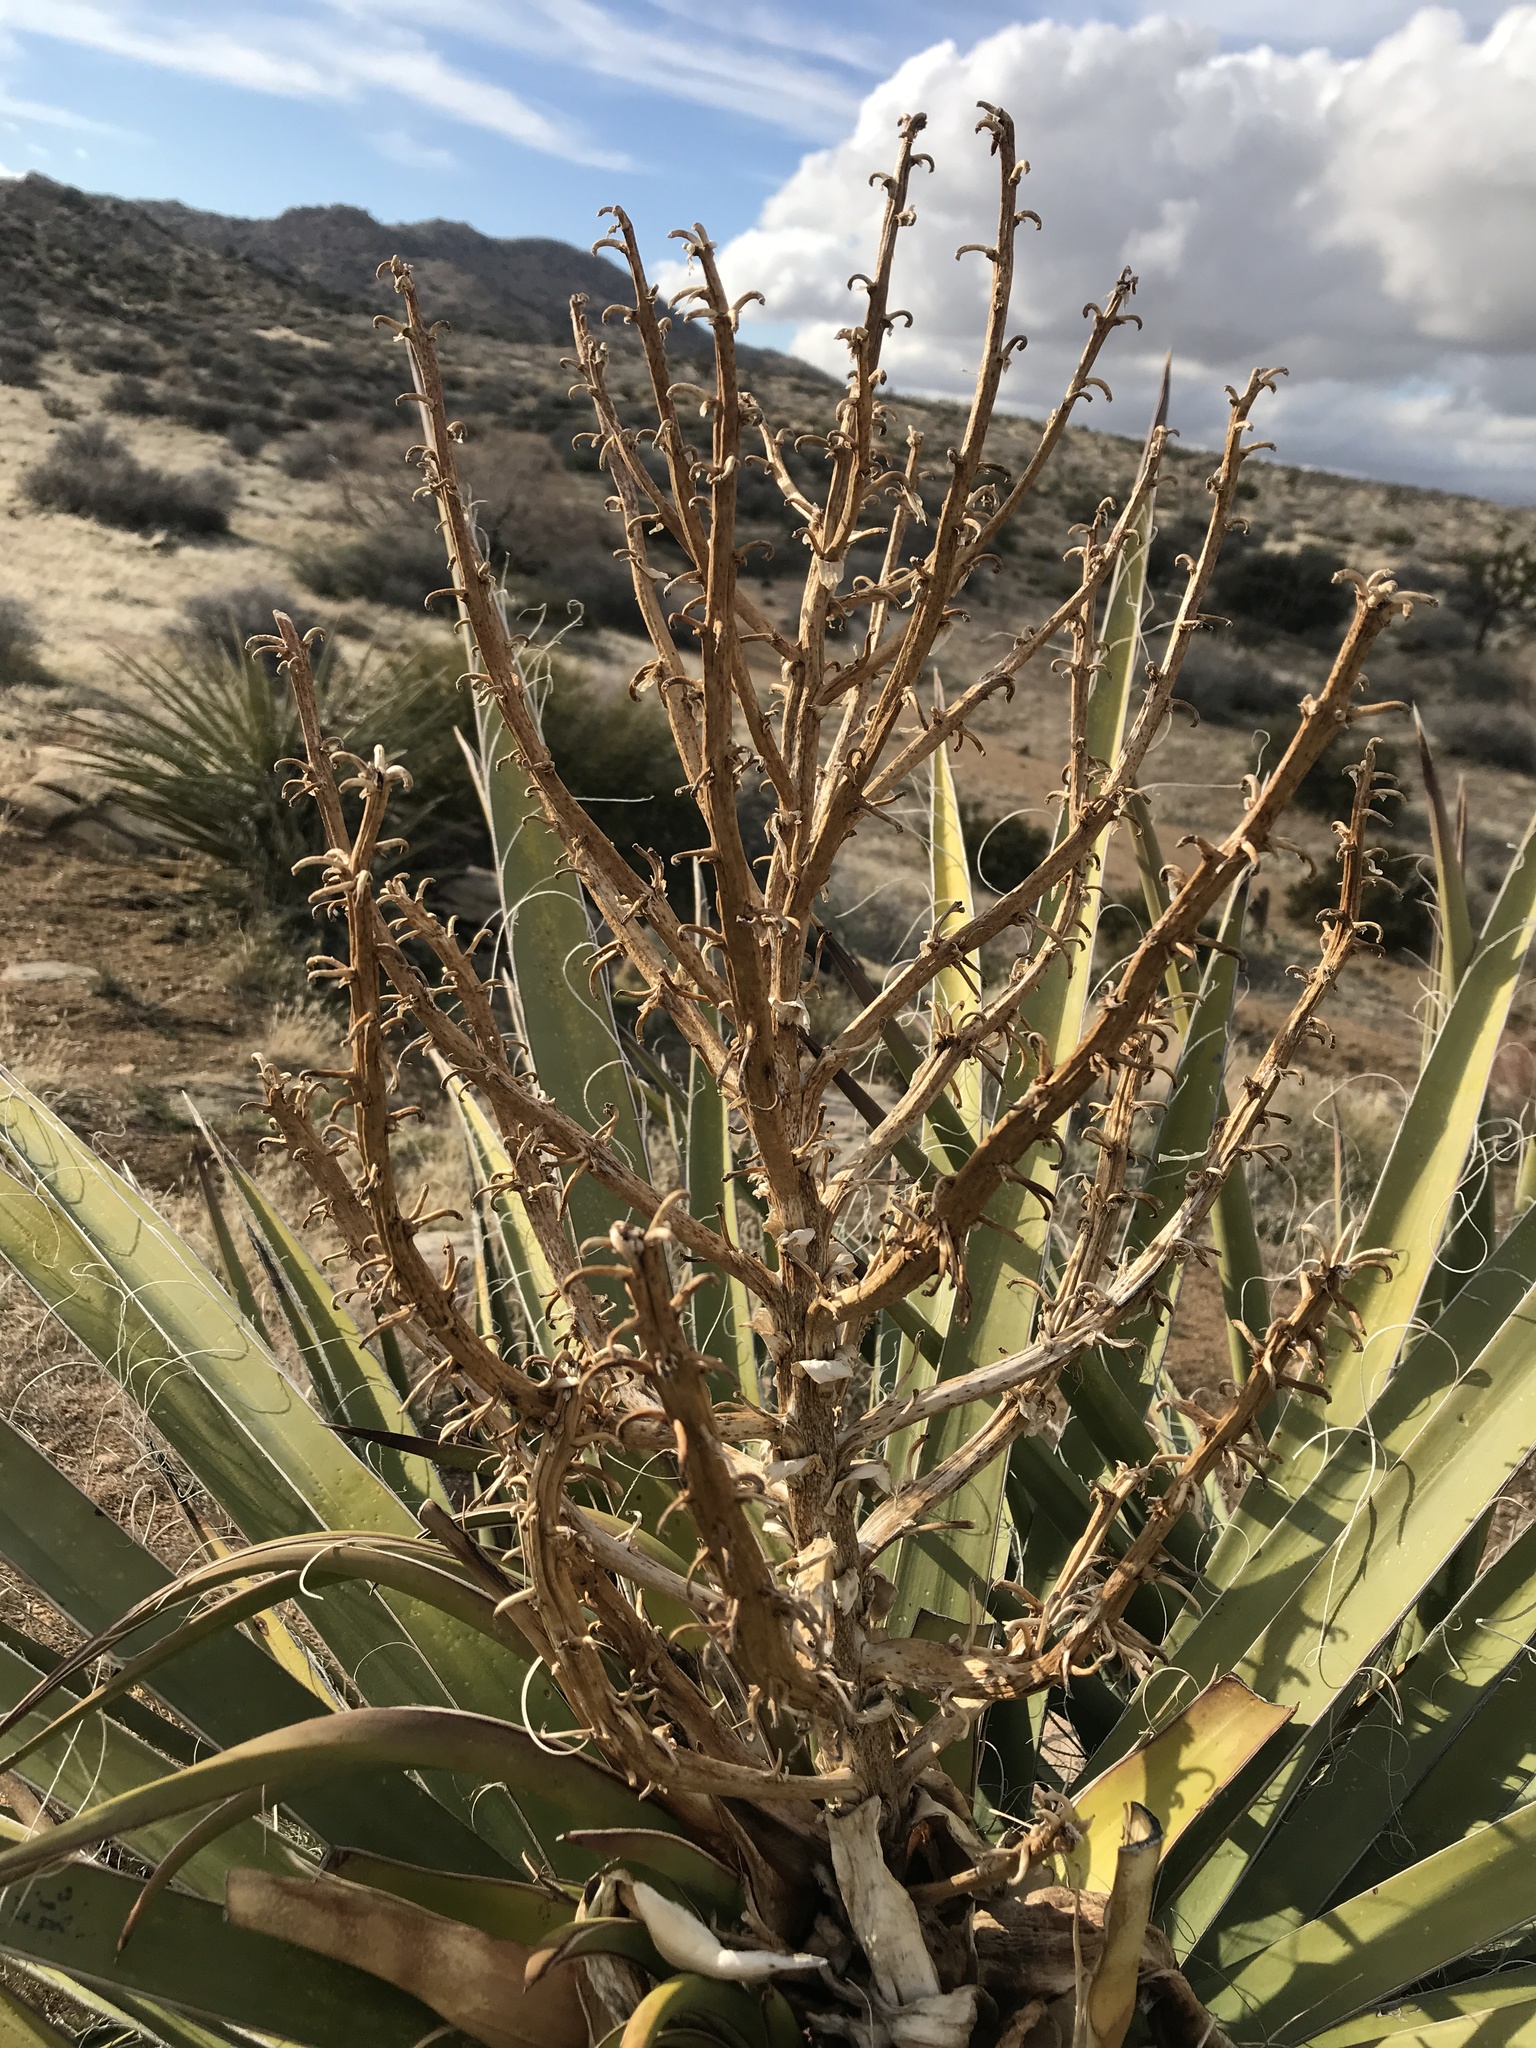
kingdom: Plantae
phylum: Tracheophyta
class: Liliopsida
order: Asparagales
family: Asparagaceae
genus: Yucca
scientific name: Yucca schidigera
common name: Mojave yucca
